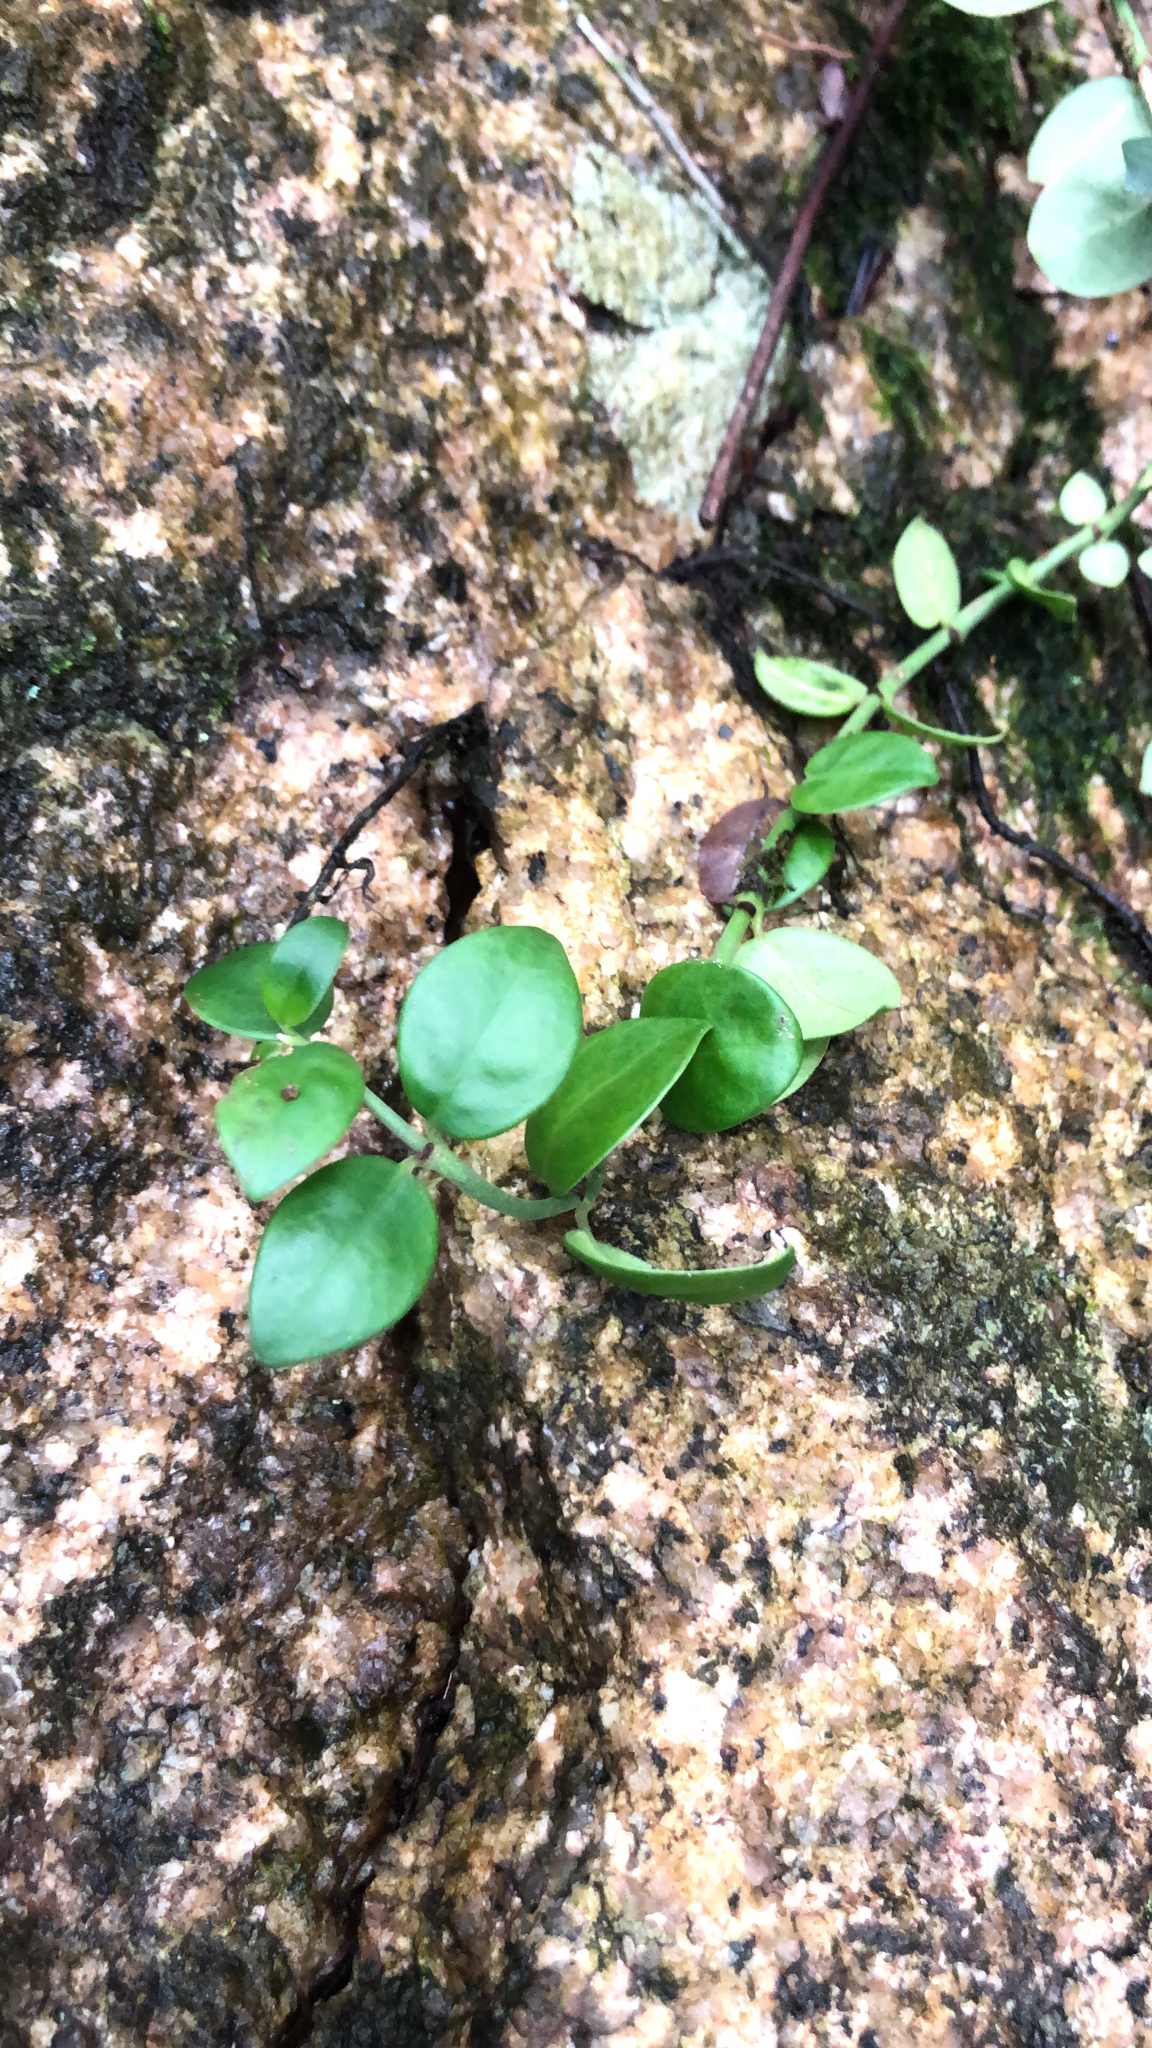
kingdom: Plantae
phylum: Tracheophyta
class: Magnoliopsida
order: Gentianales
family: Rubiaceae
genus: Psychotria
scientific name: Psychotria serpens
